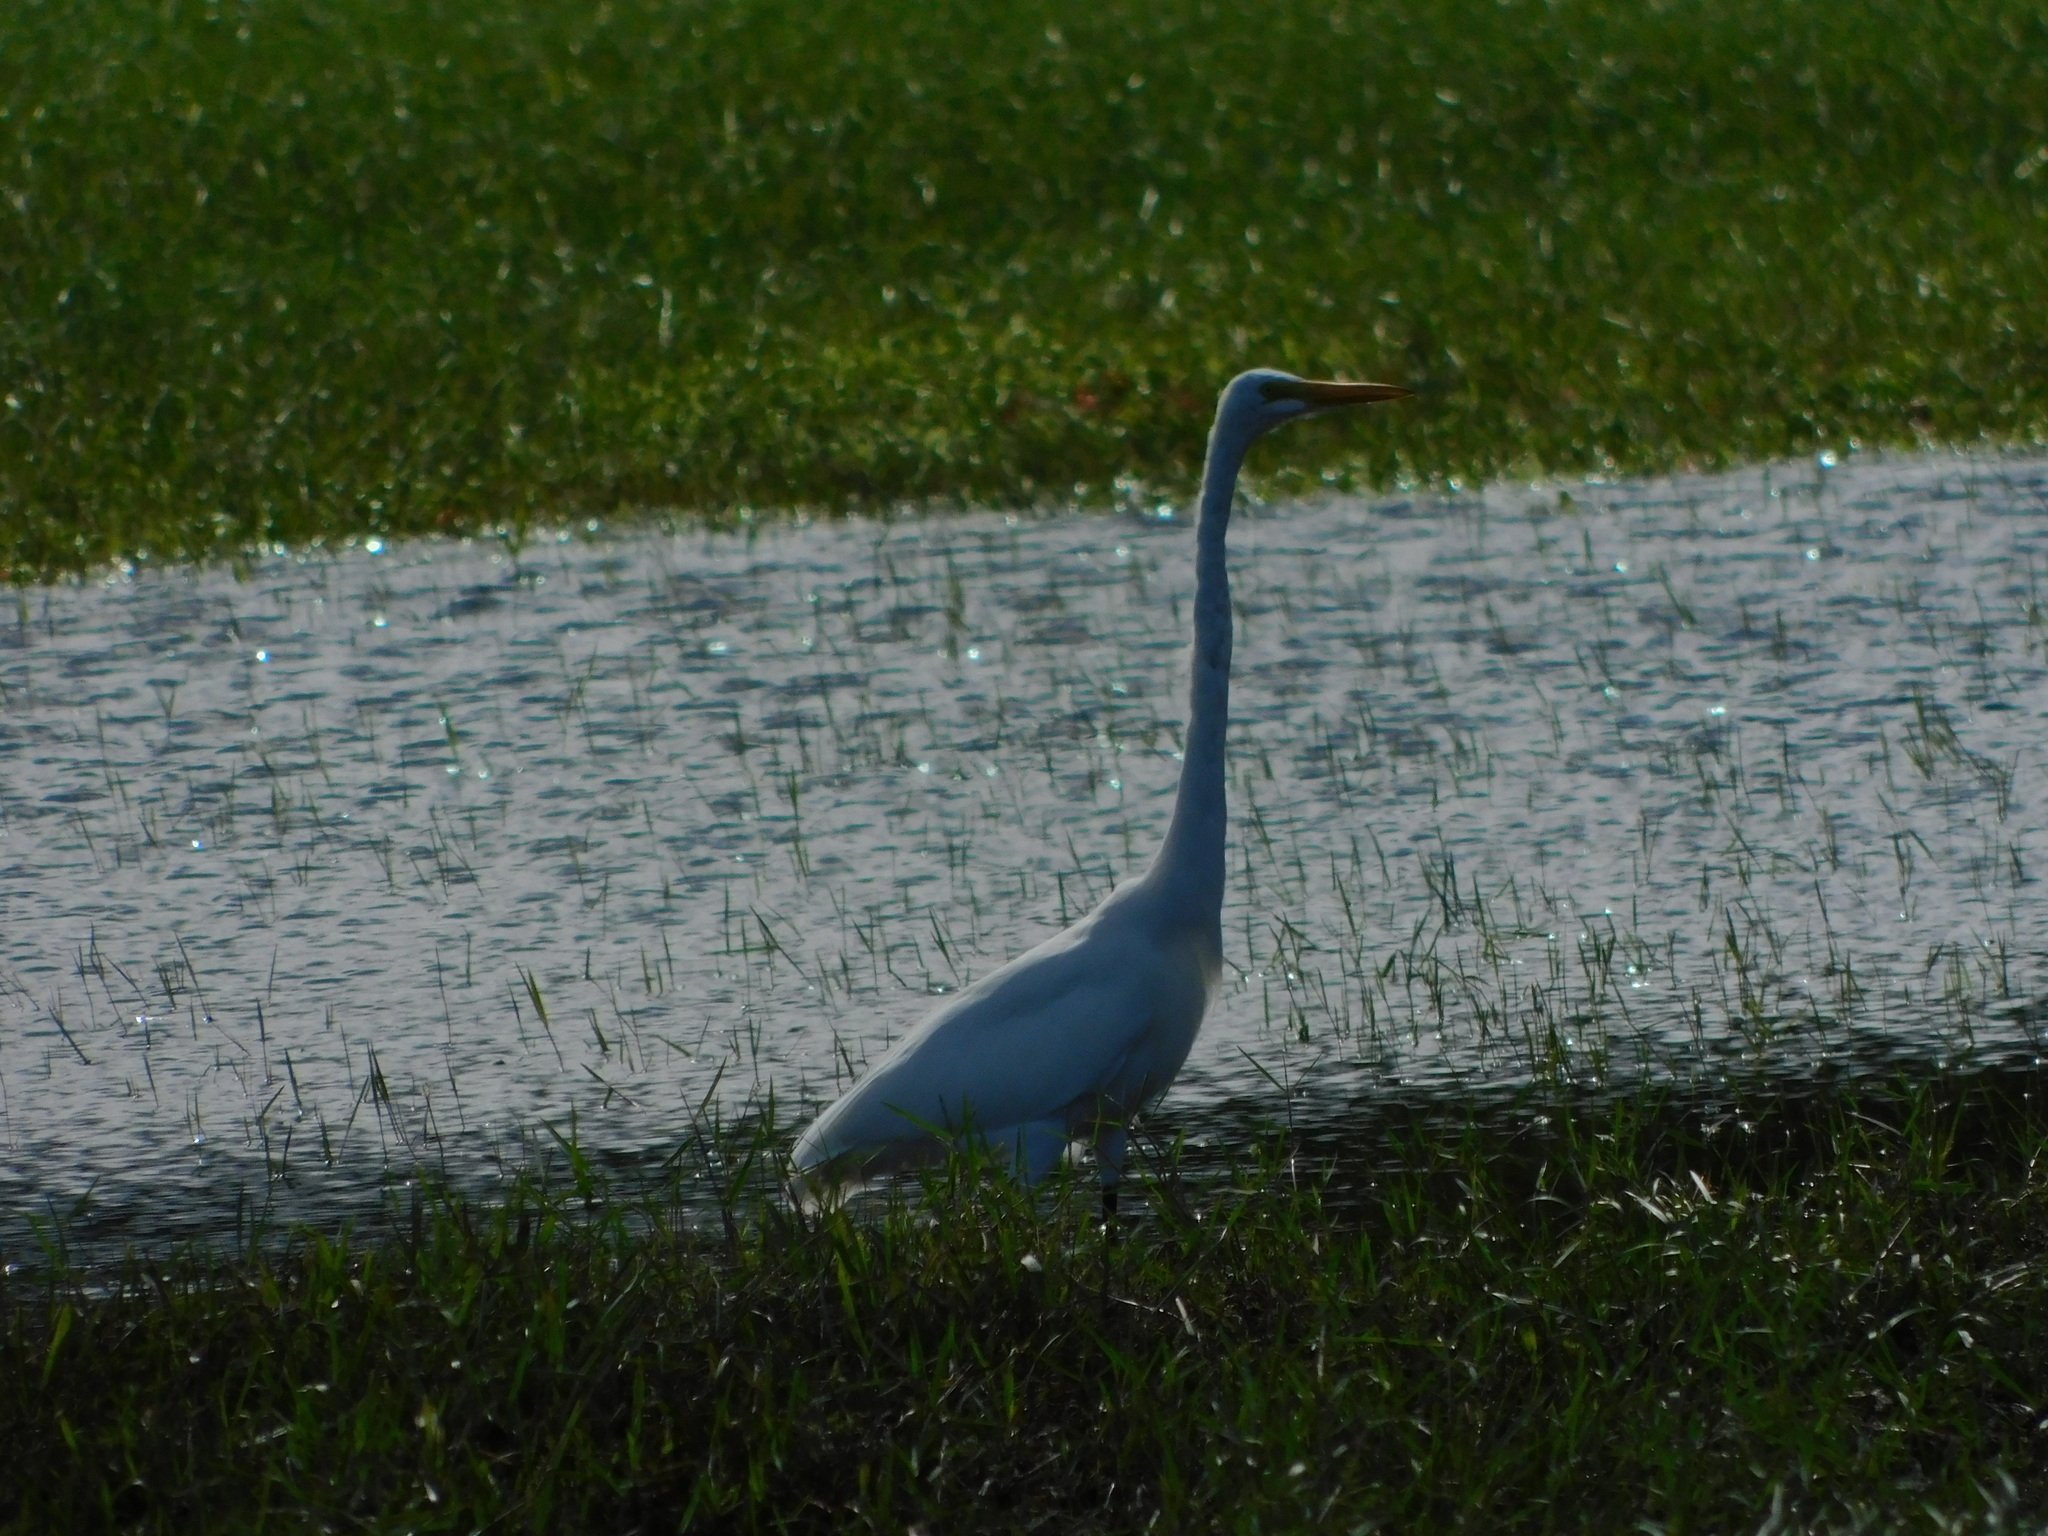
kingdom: Animalia
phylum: Chordata
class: Aves
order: Pelecaniformes
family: Ardeidae
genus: Ardea
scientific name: Ardea alba
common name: Great egret
